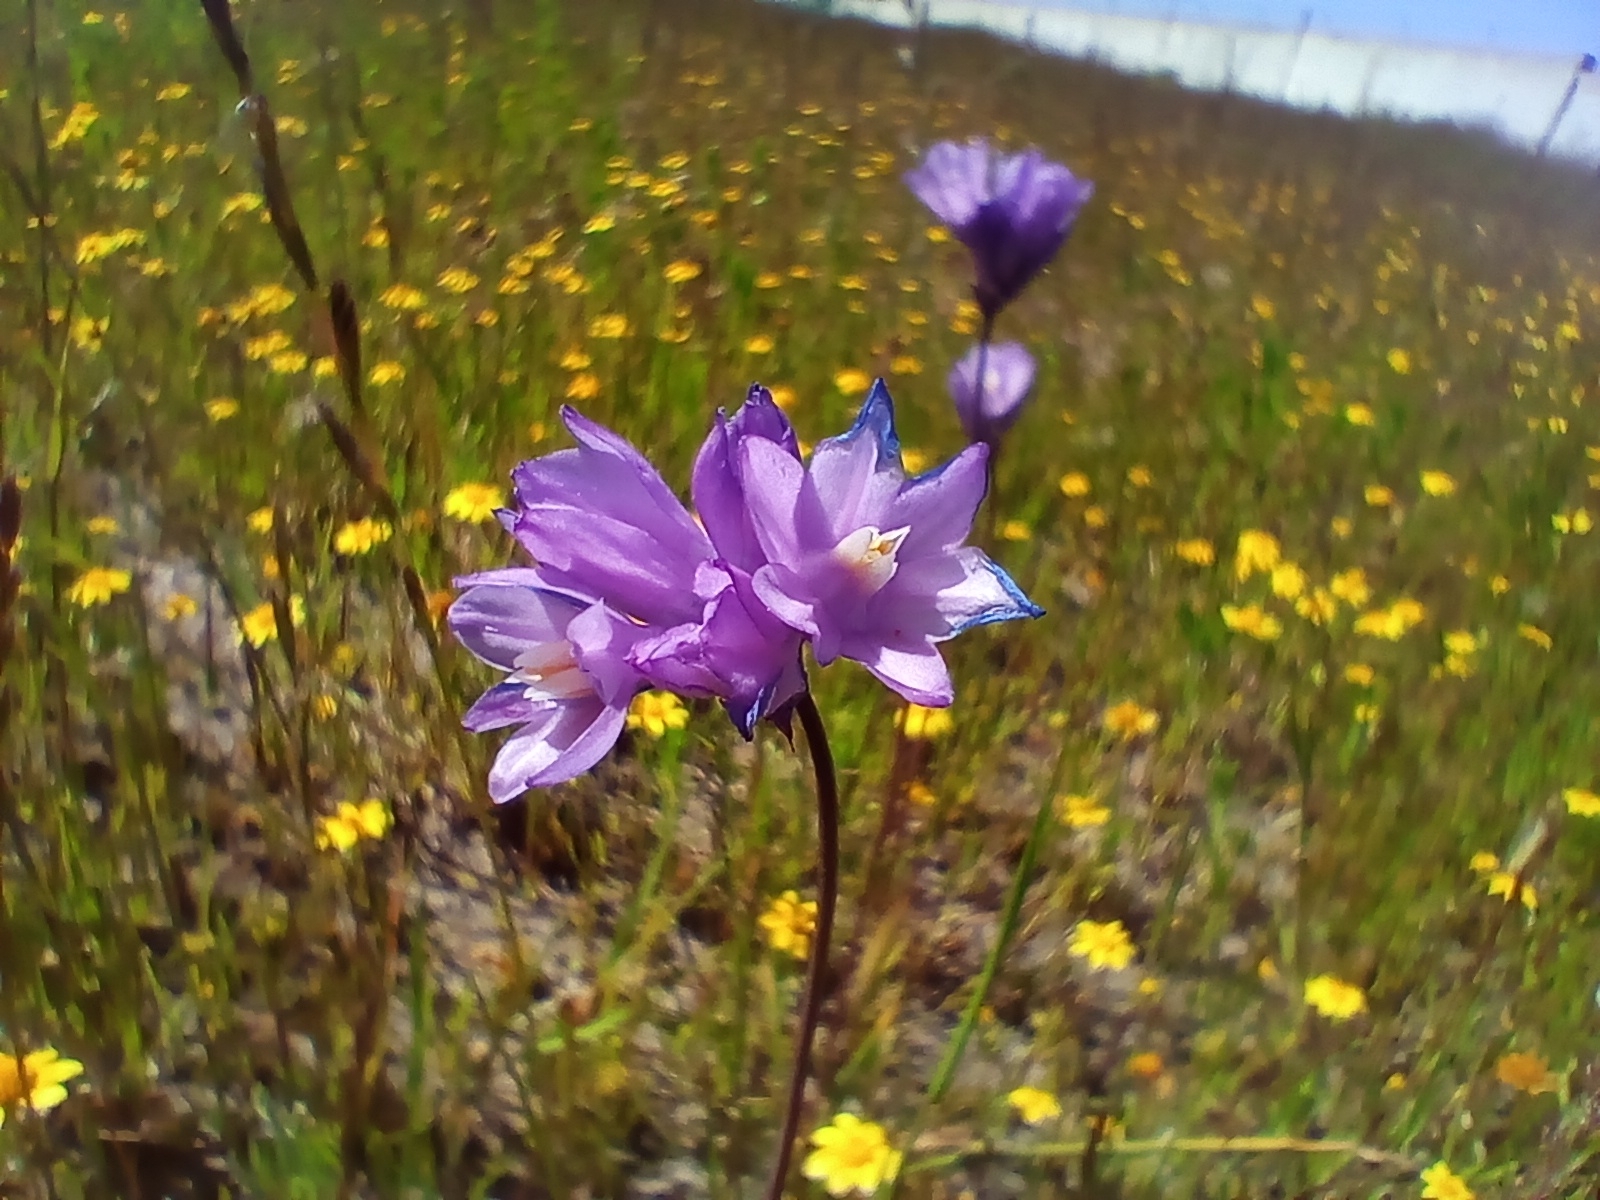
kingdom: Plantae
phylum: Tracheophyta
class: Liliopsida
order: Asparagales
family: Asparagaceae
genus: Dipterostemon
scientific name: Dipterostemon capitatus
